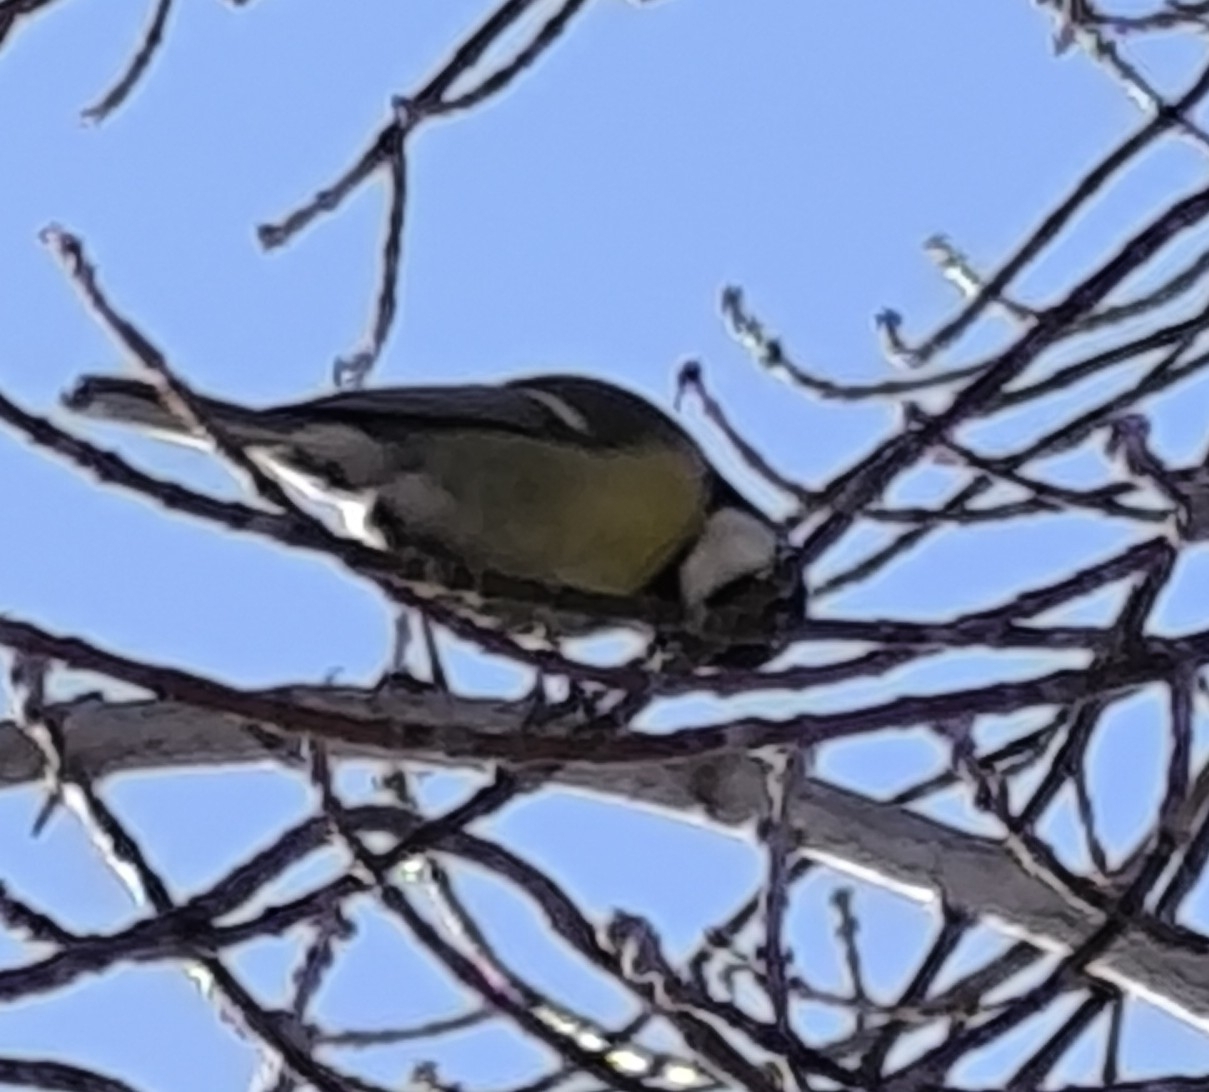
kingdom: Animalia
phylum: Chordata
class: Aves
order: Passeriformes
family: Paridae
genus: Parus
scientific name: Parus major
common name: Great tit
